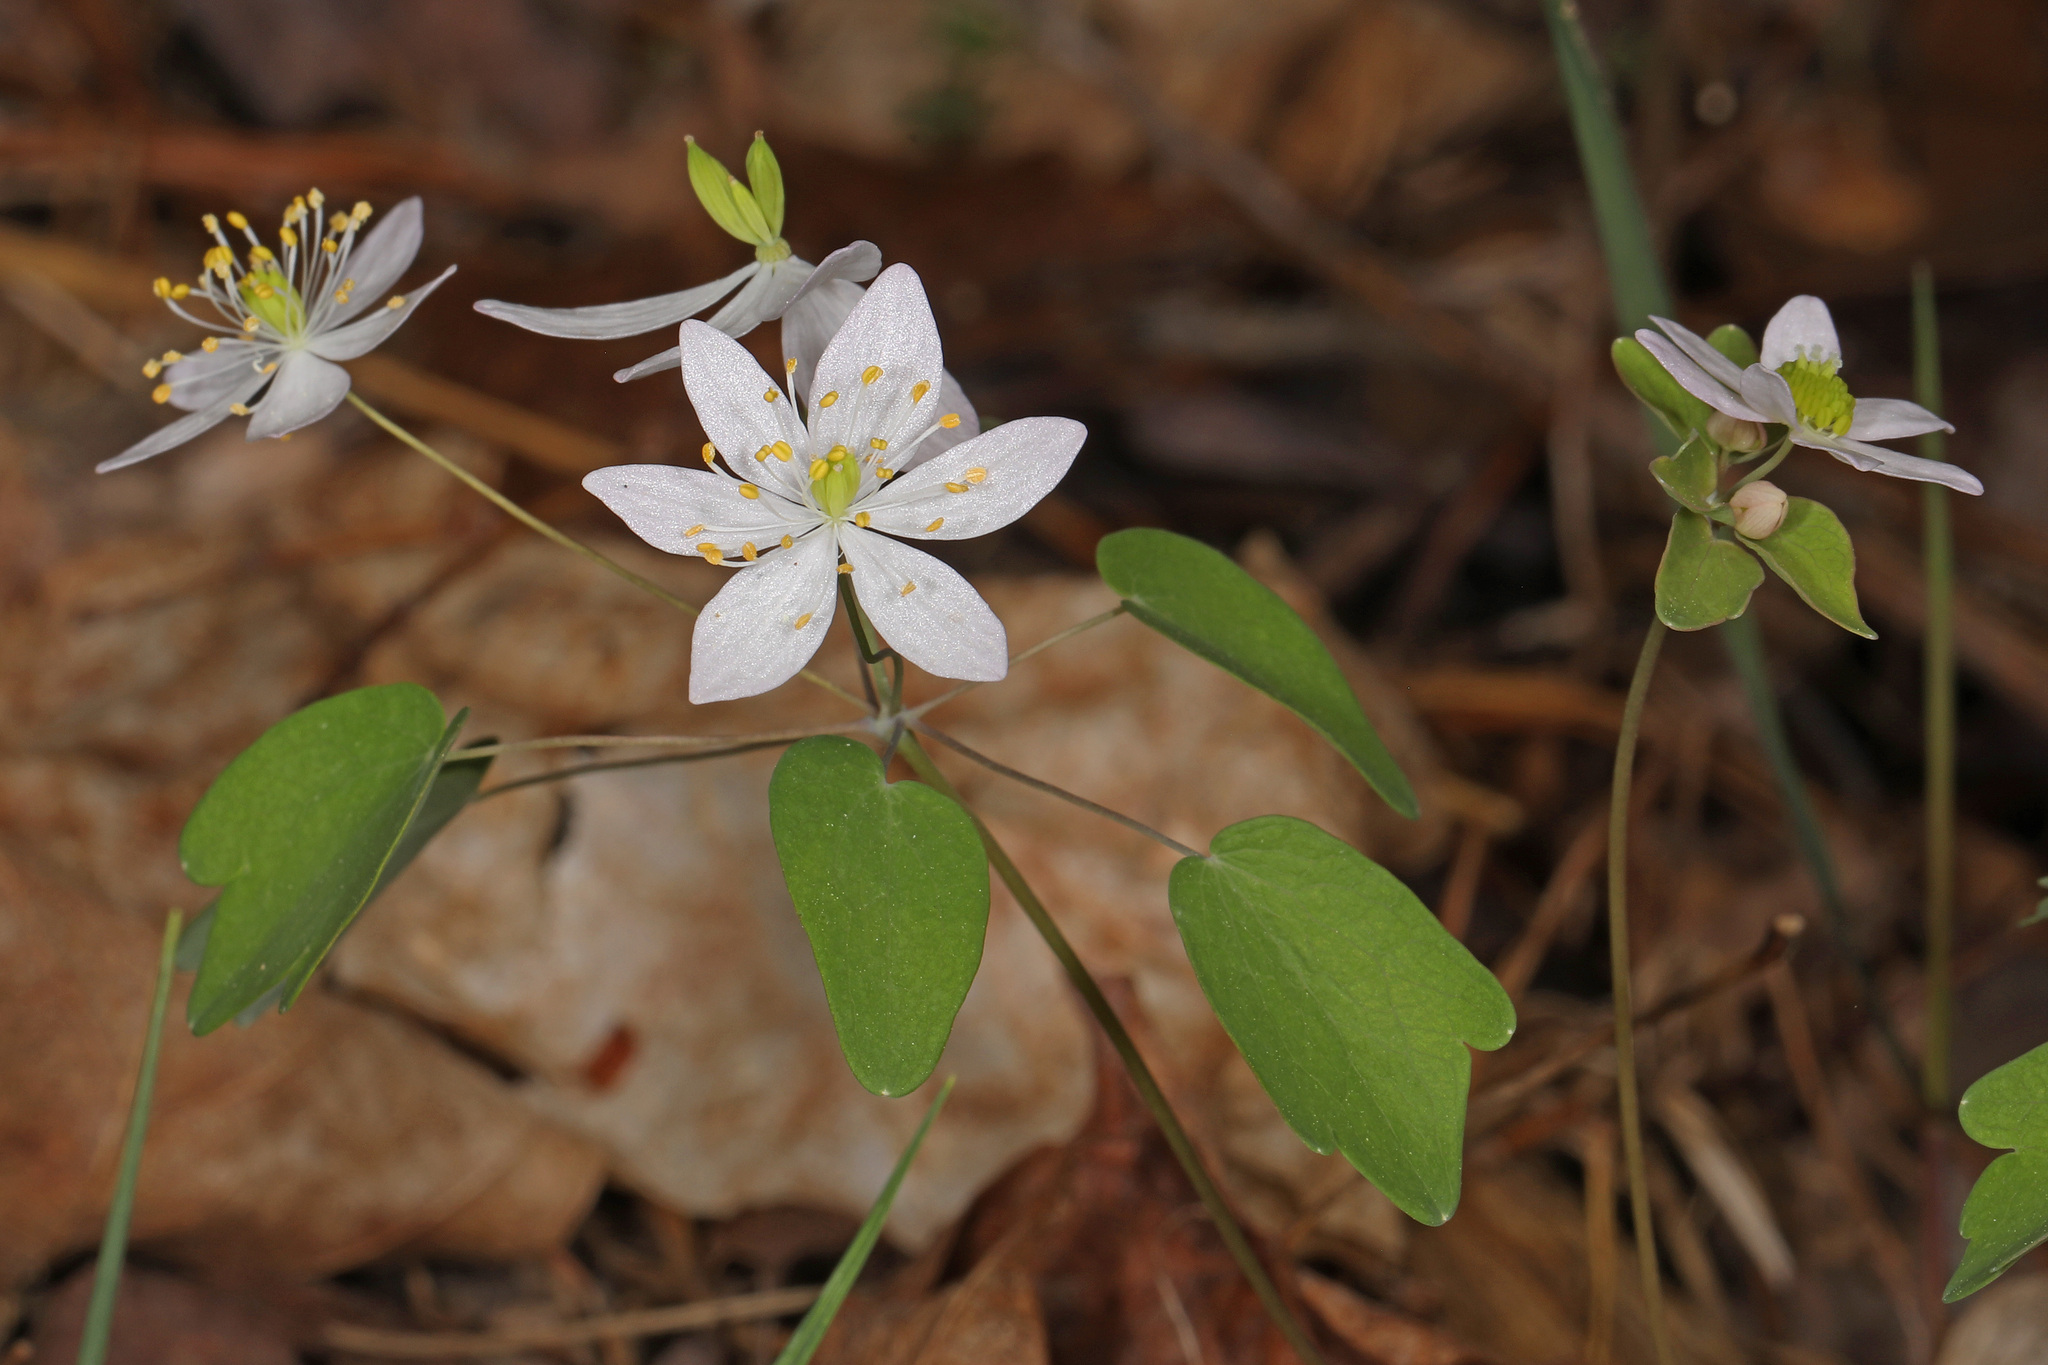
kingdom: Plantae
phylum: Tracheophyta
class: Magnoliopsida
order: Ranunculales
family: Ranunculaceae
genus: Thalictrum
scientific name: Thalictrum thalictroides
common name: Rue-anemone
